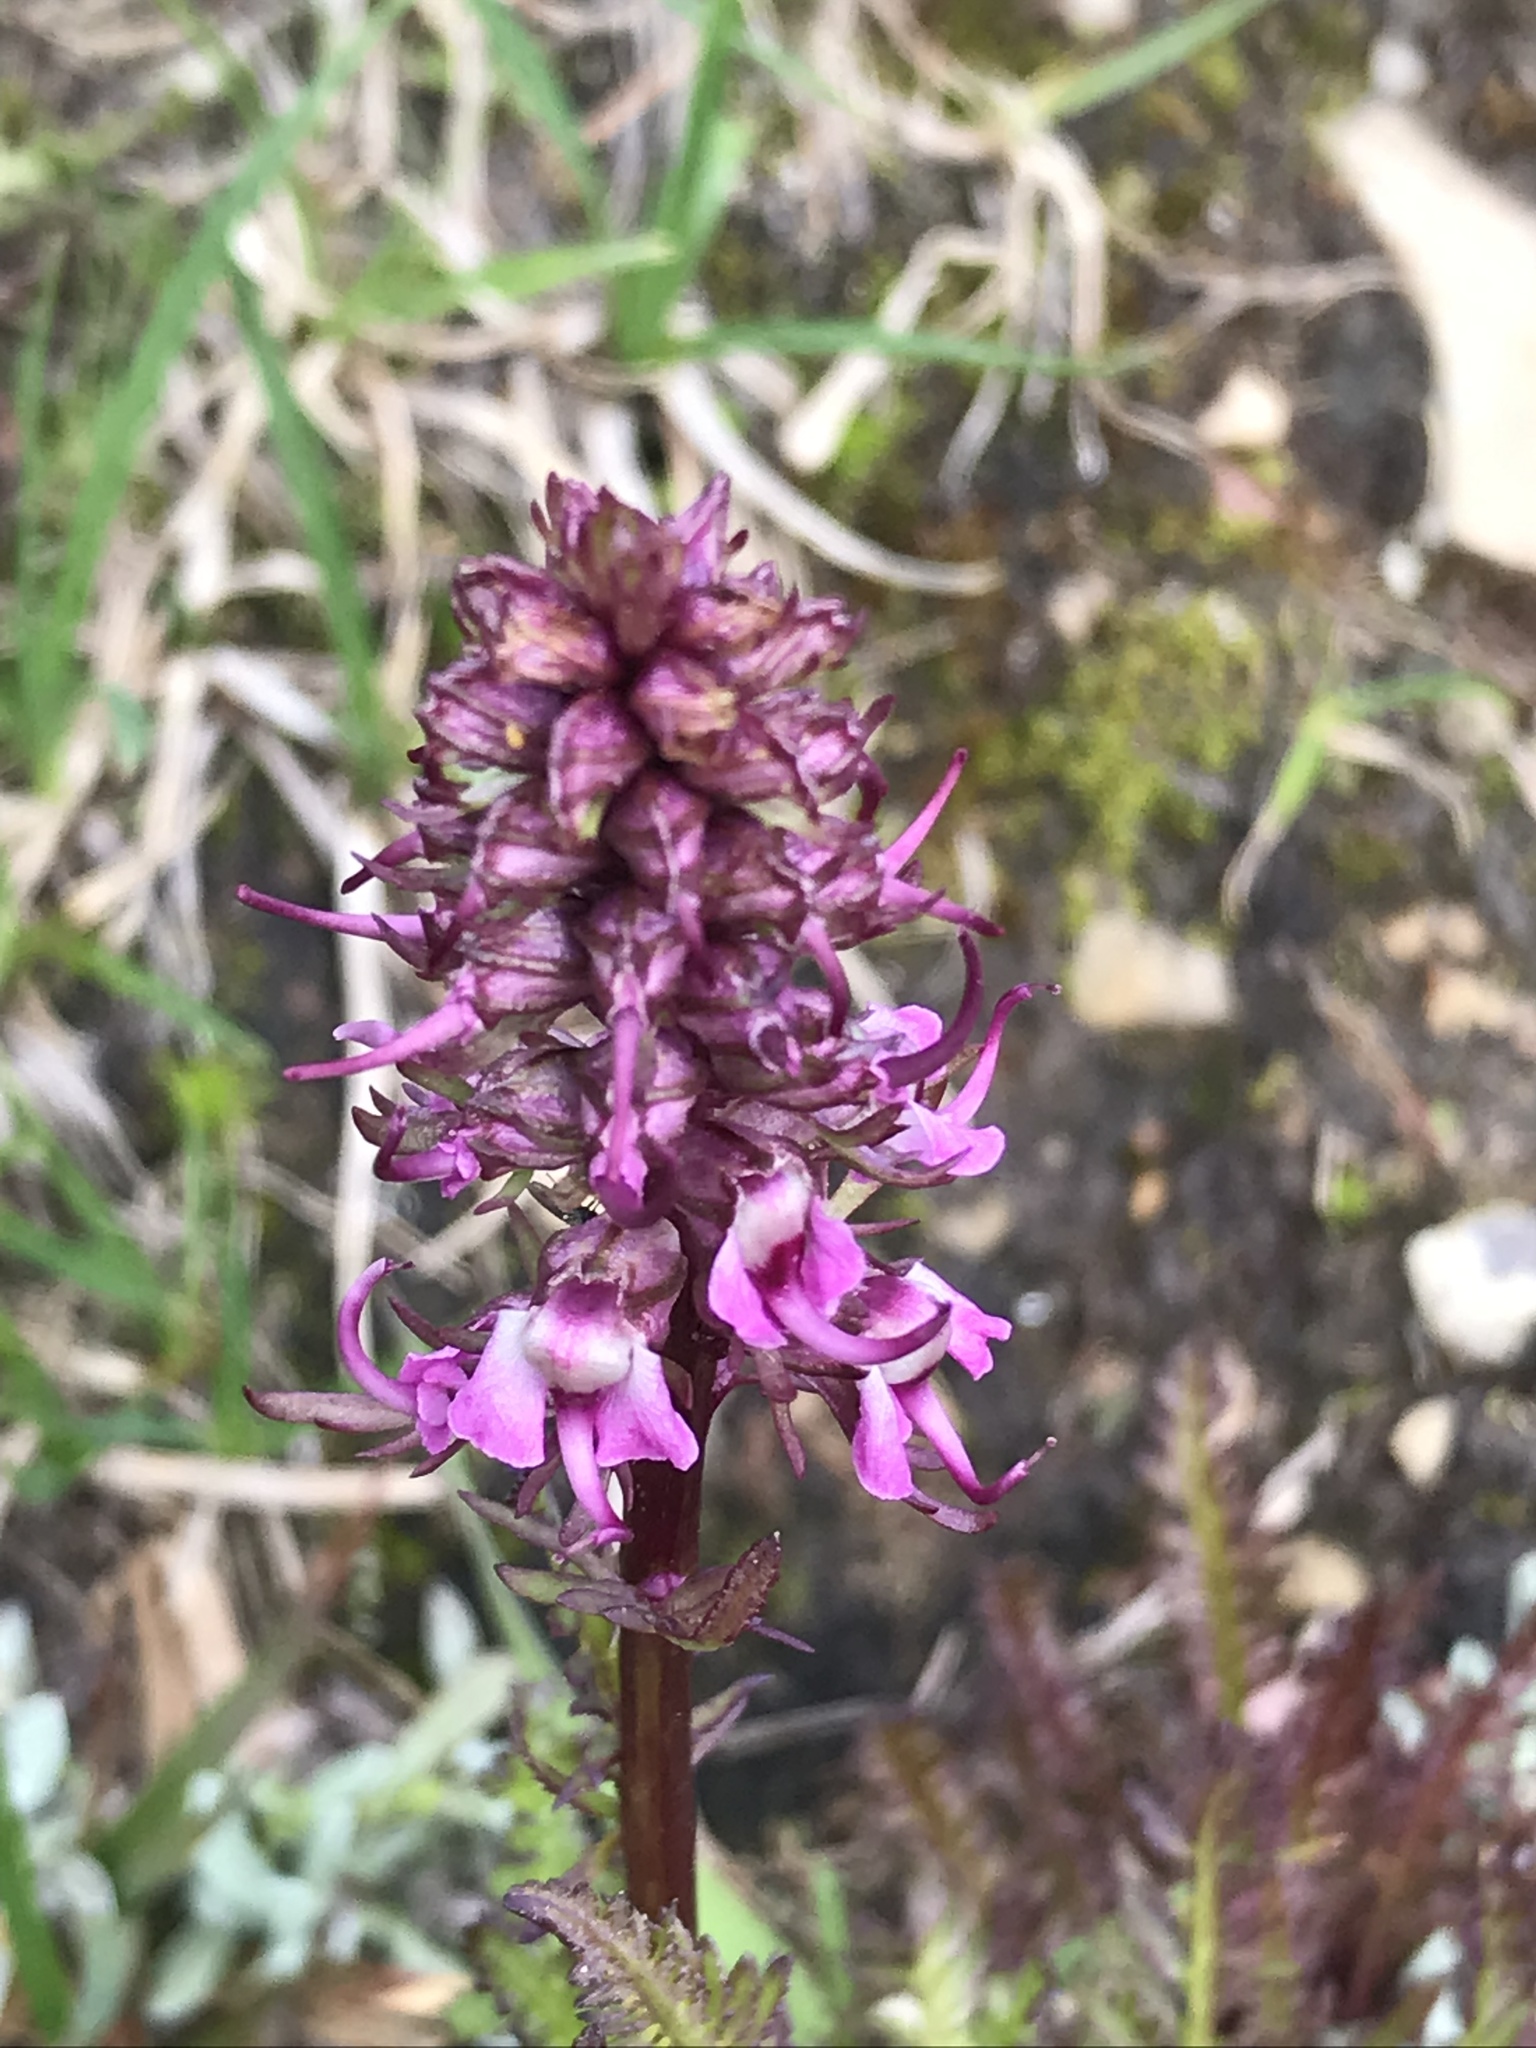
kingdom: Plantae
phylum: Tracheophyta
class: Magnoliopsida
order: Lamiales
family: Orobanchaceae
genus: Pedicularis
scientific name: Pedicularis groenlandica
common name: Elephant's-head
